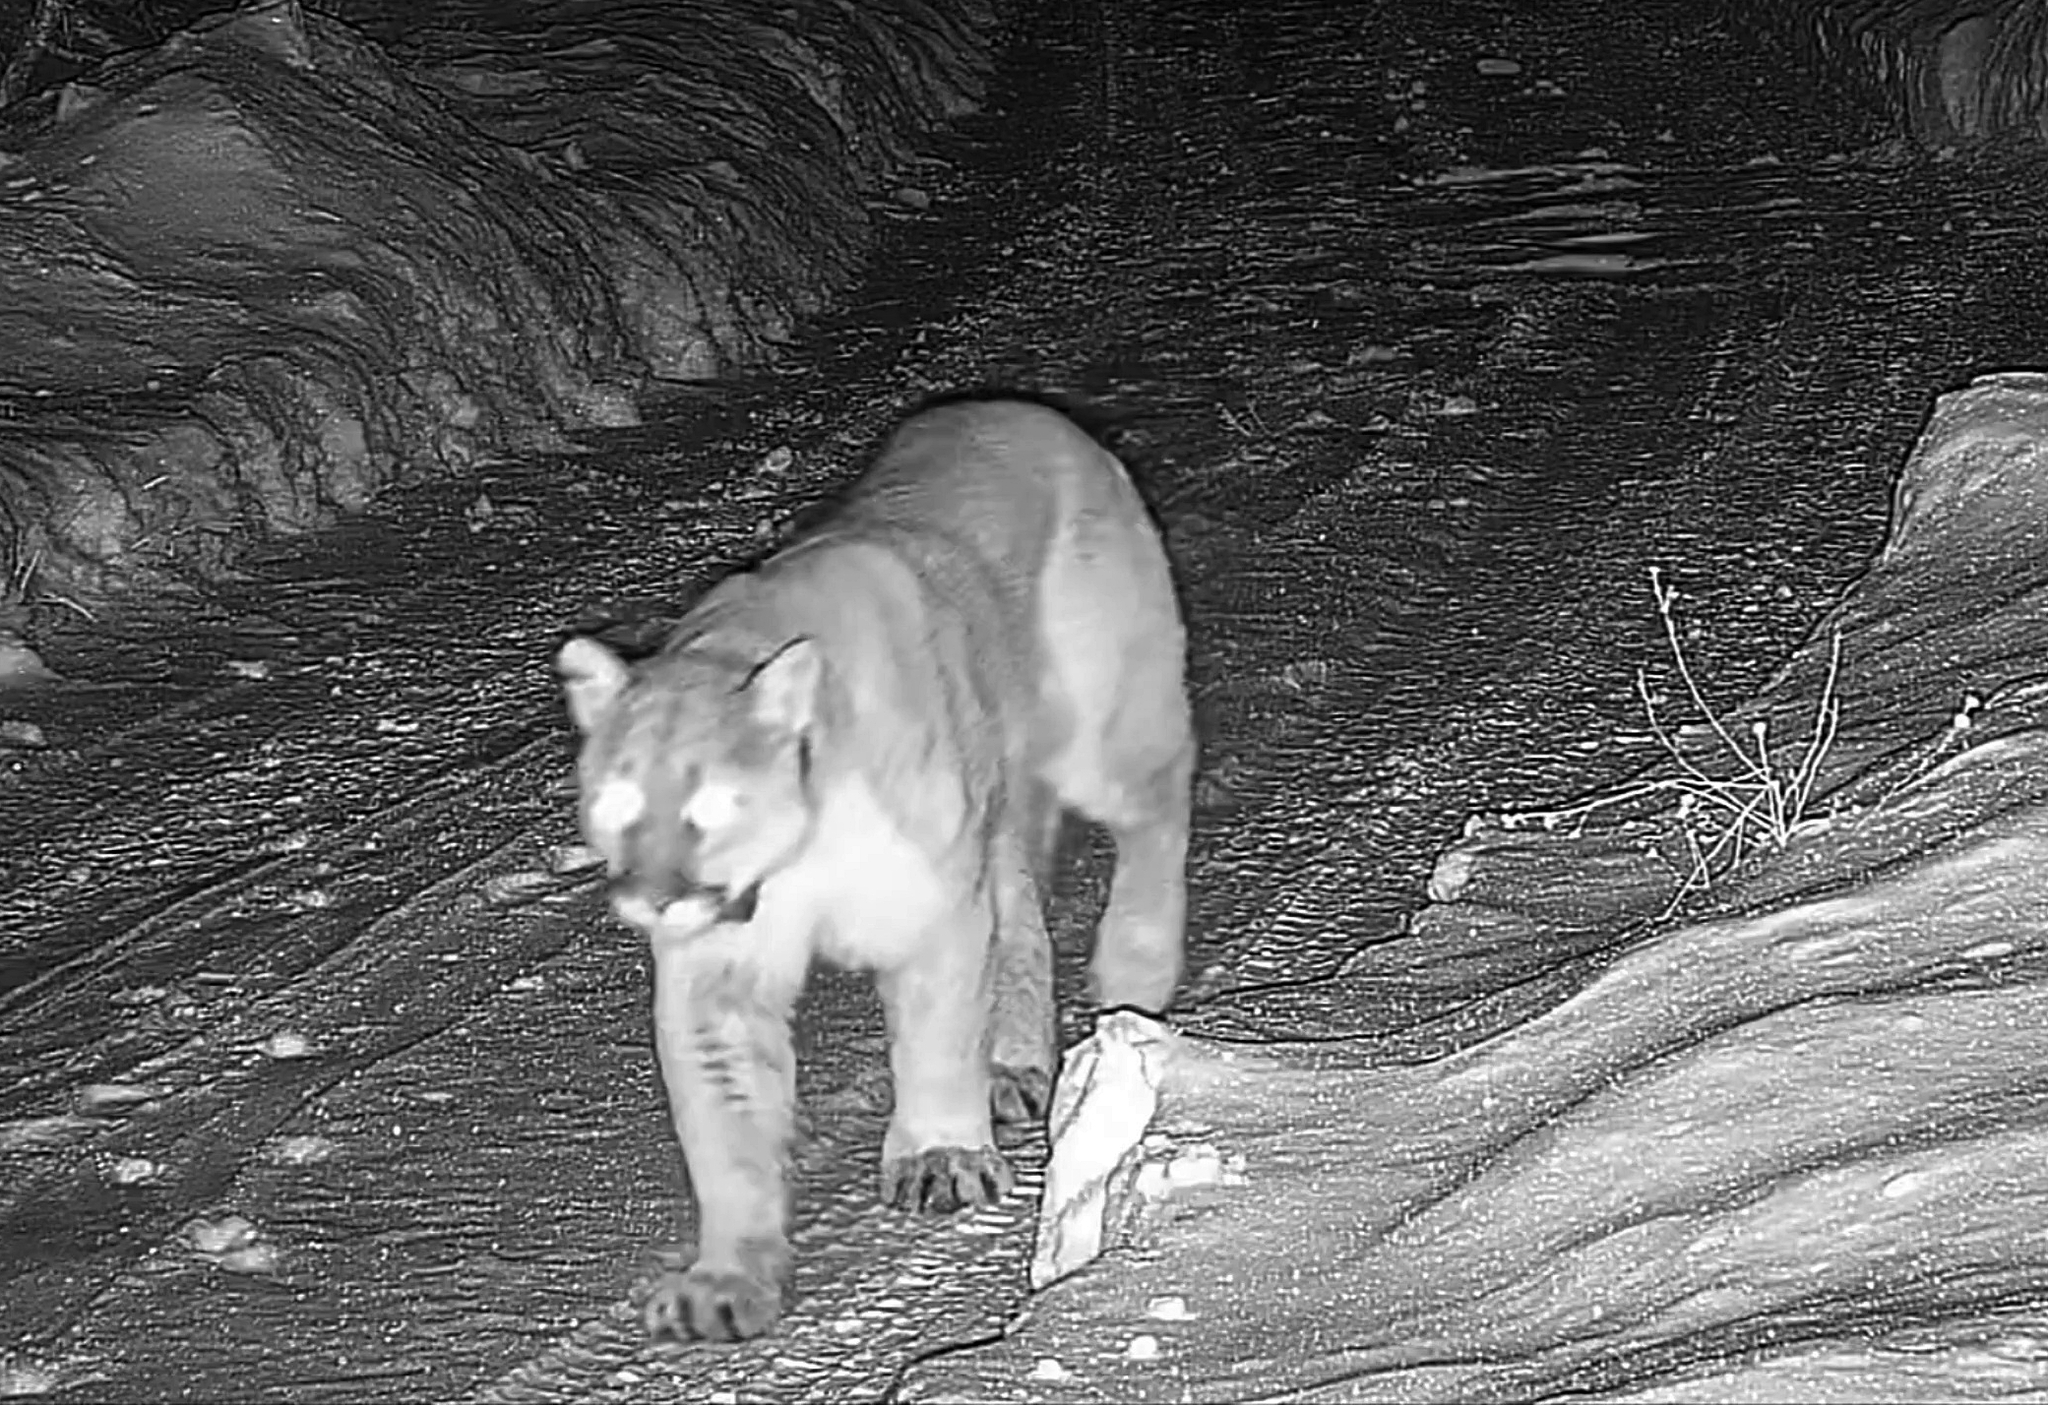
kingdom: Animalia
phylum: Chordata
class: Mammalia
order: Carnivora
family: Felidae
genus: Puma
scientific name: Puma concolor
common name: Puma
